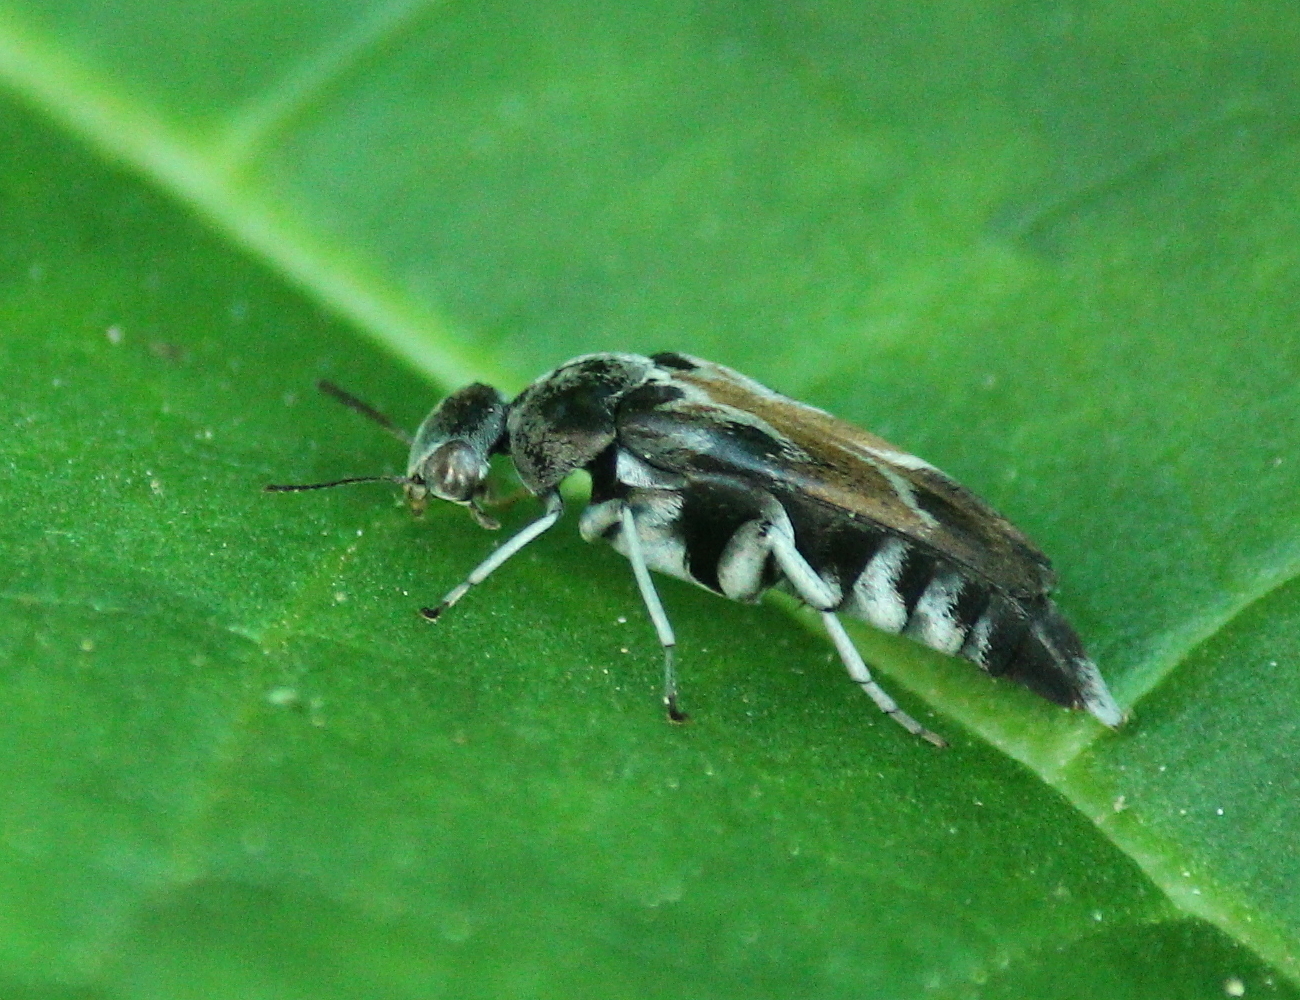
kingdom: Animalia
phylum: Arthropoda
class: Insecta
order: Coleoptera
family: Mordellidae
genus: Glipa
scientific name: Glipa hilaris
